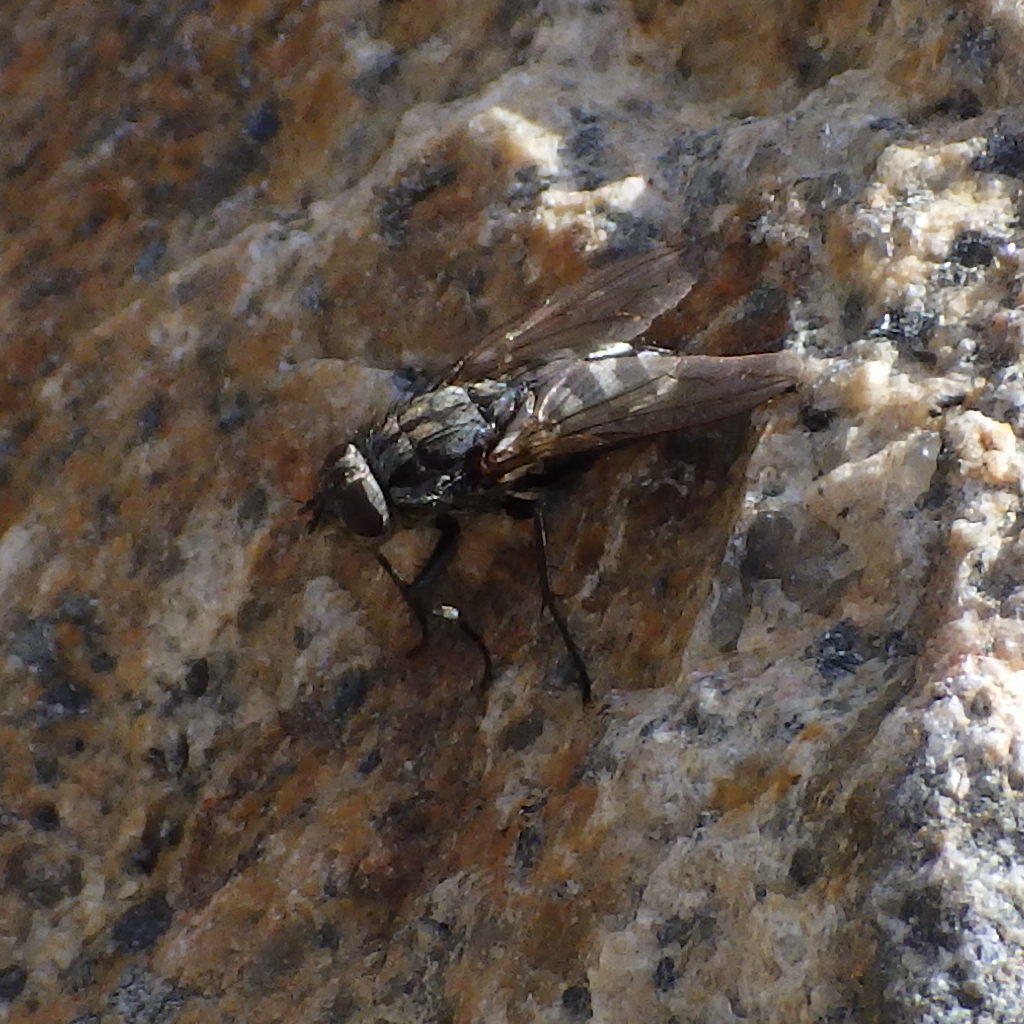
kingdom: Animalia
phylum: Arthropoda
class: Insecta
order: Diptera
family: Polleniidae
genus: Pollenia
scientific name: Pollenia vagabunda
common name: Vagabund cluster fly
